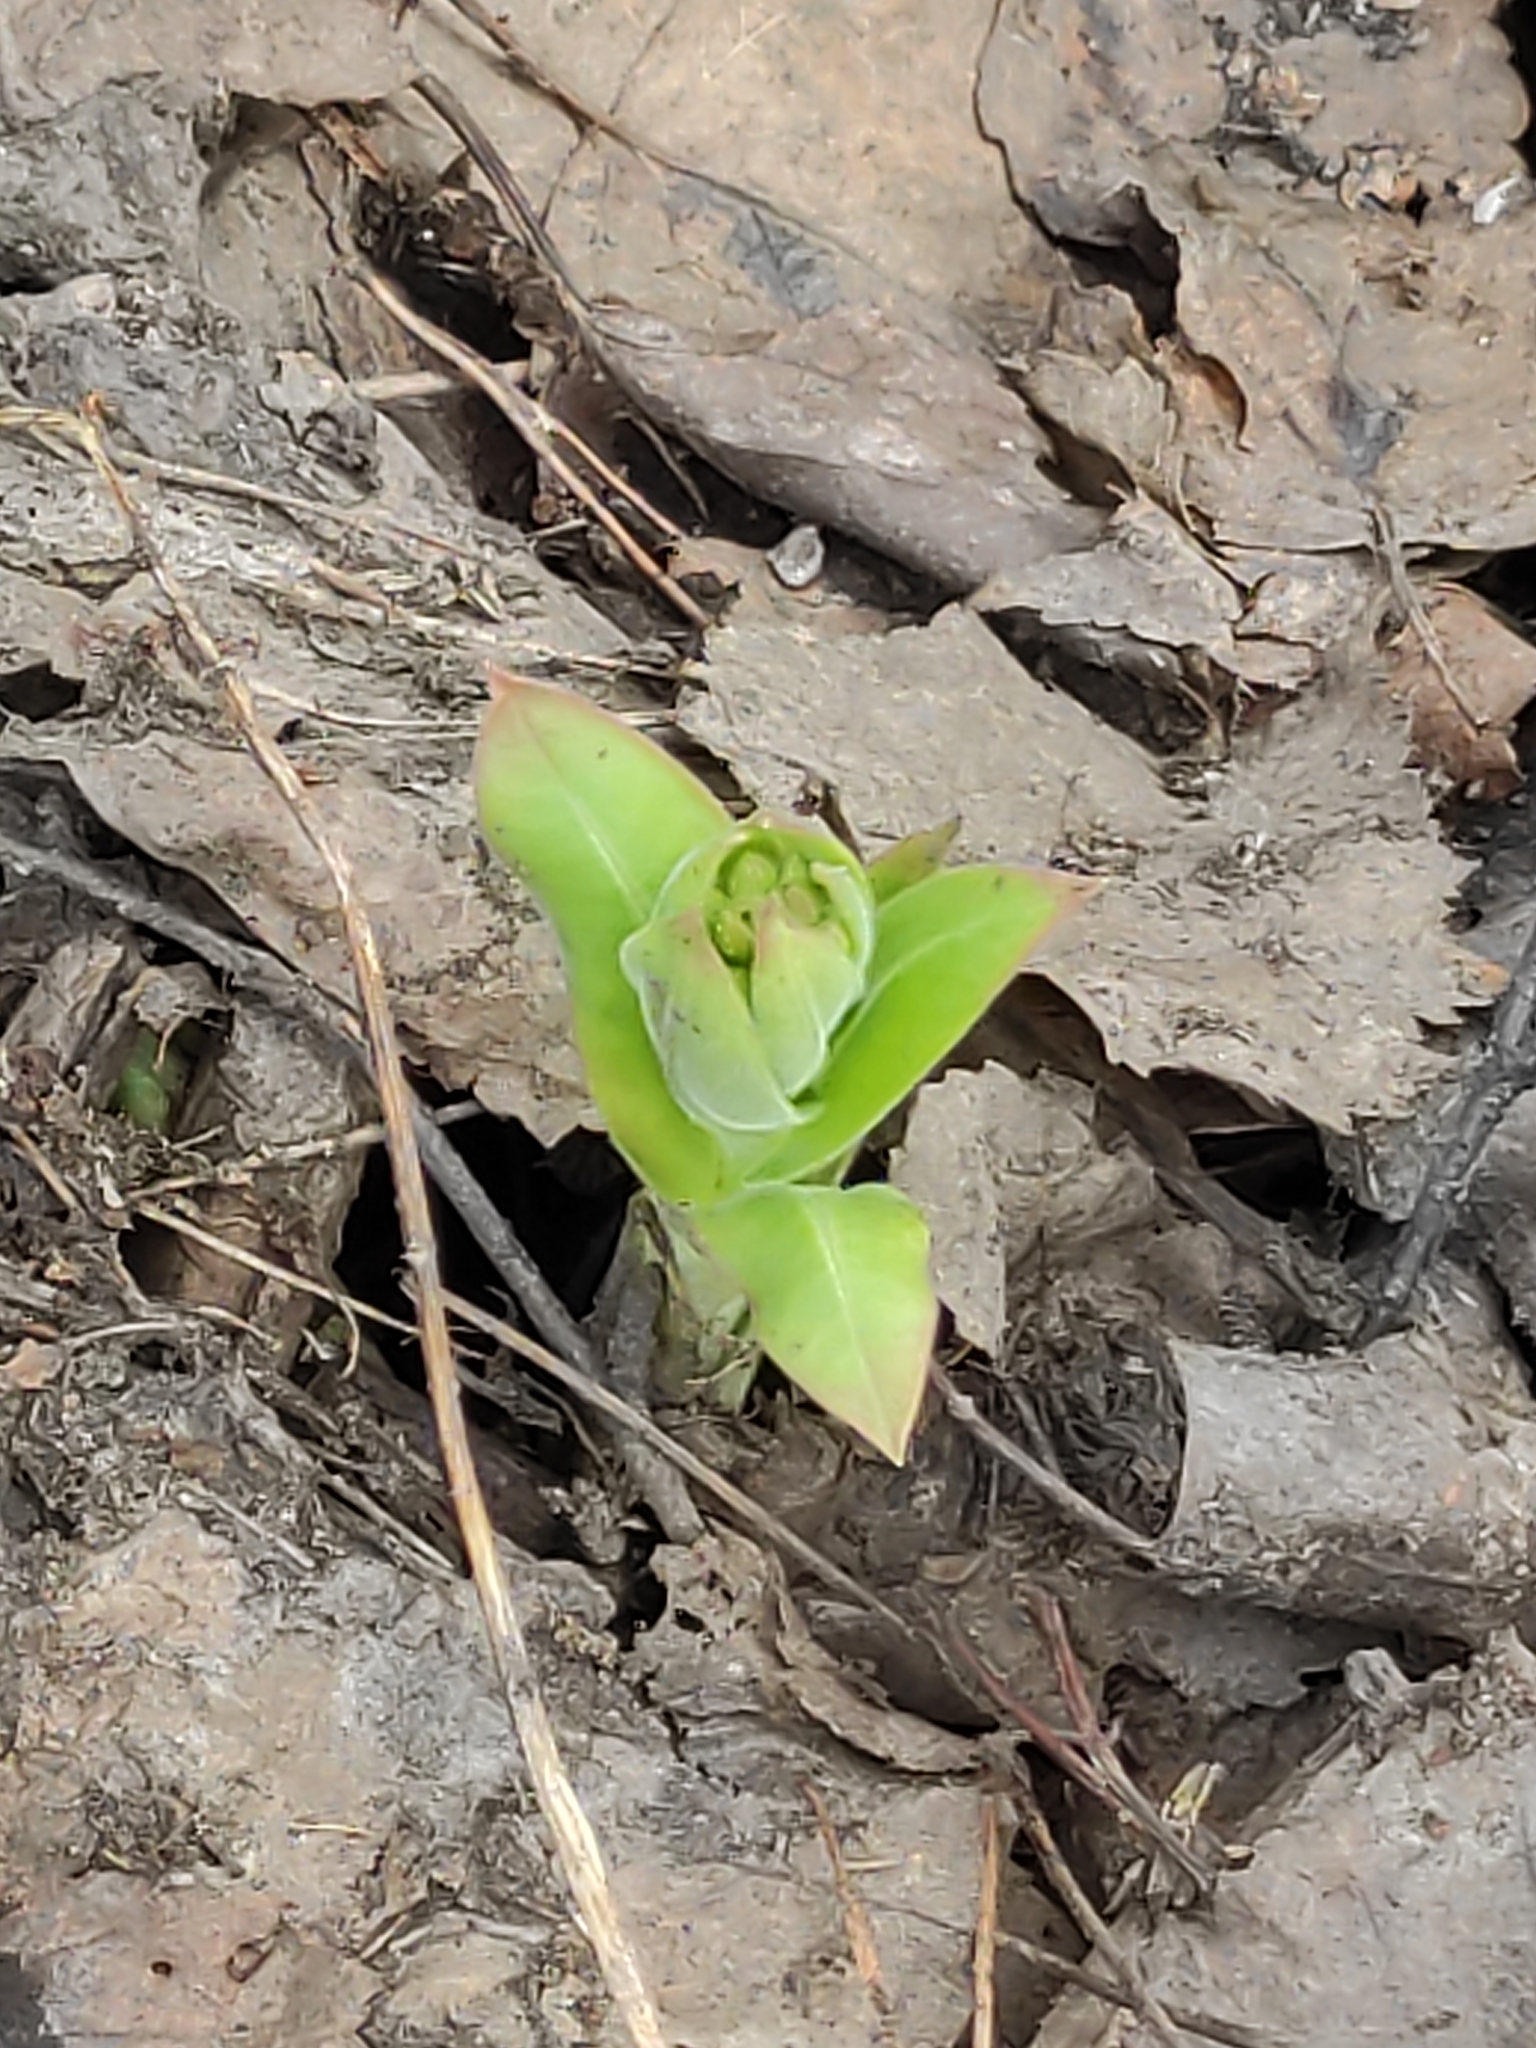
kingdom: Plantae
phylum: Tracheophyta
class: Magnoliopsida
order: Boraginales
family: Boraginaceae
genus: Pulmonaria
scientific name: Pulmonaria mollis
